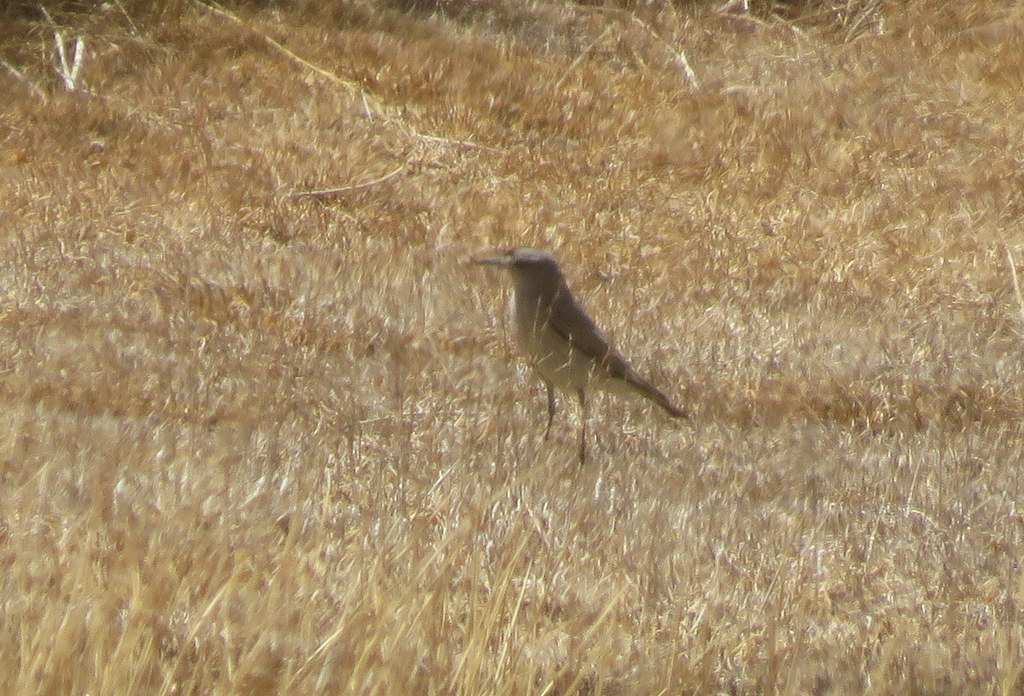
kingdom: Animalia
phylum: Chordata
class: Aves
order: Passeriformes
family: Tyrannidae
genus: Muscisaxicola
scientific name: Muscisaxicola frontalis
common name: Black-fronted ground tyrant
